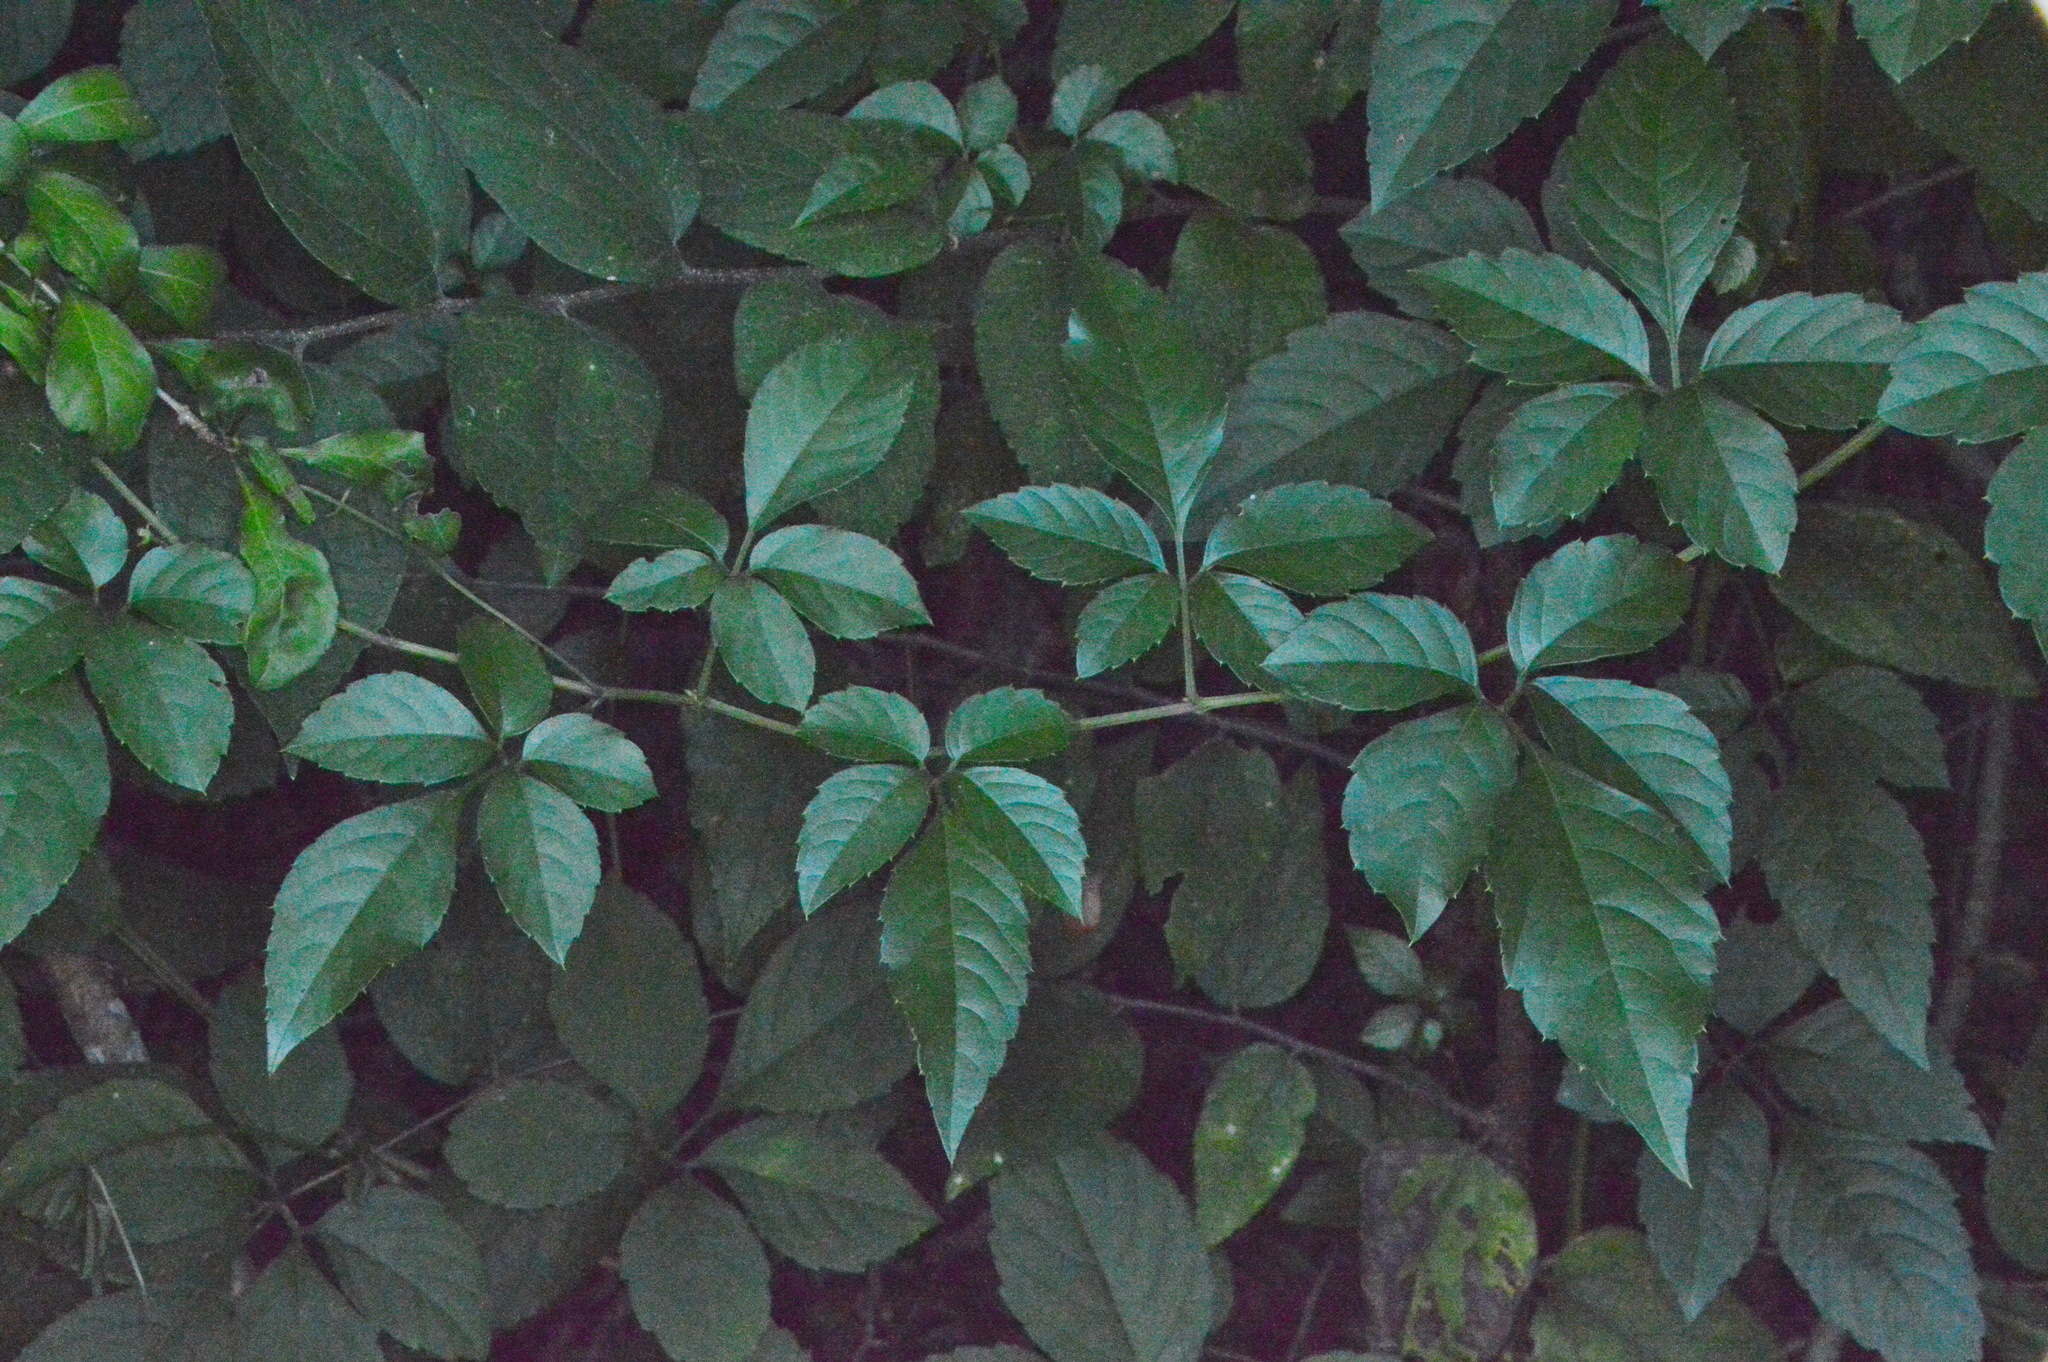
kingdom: Plantae
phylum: Tracheophyta
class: Magnoliopsida
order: Vitales
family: Vitaceae
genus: Causonis
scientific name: Causonis japonica
